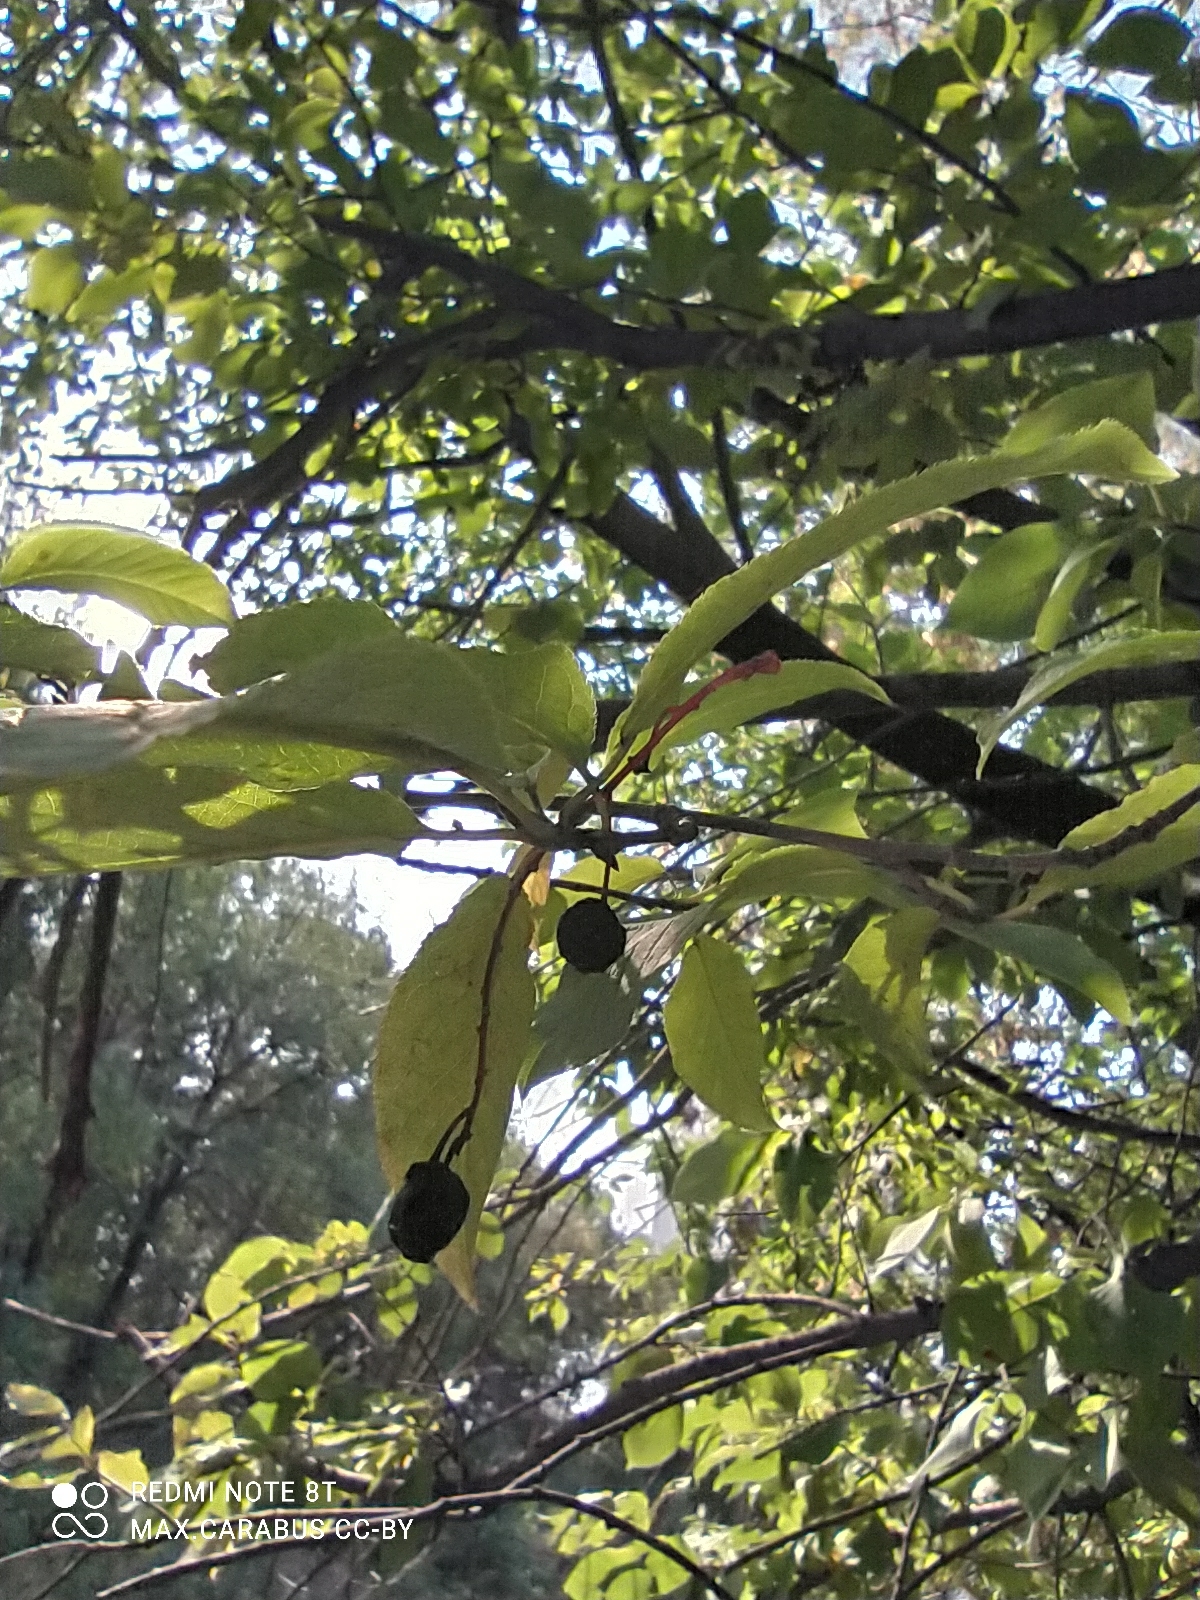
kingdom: Plantae
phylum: Tracheophyta
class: Magnoliopsida
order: Rosales
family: Rosaceae
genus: Prunus
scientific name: Prunus padus
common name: Bird cherry
